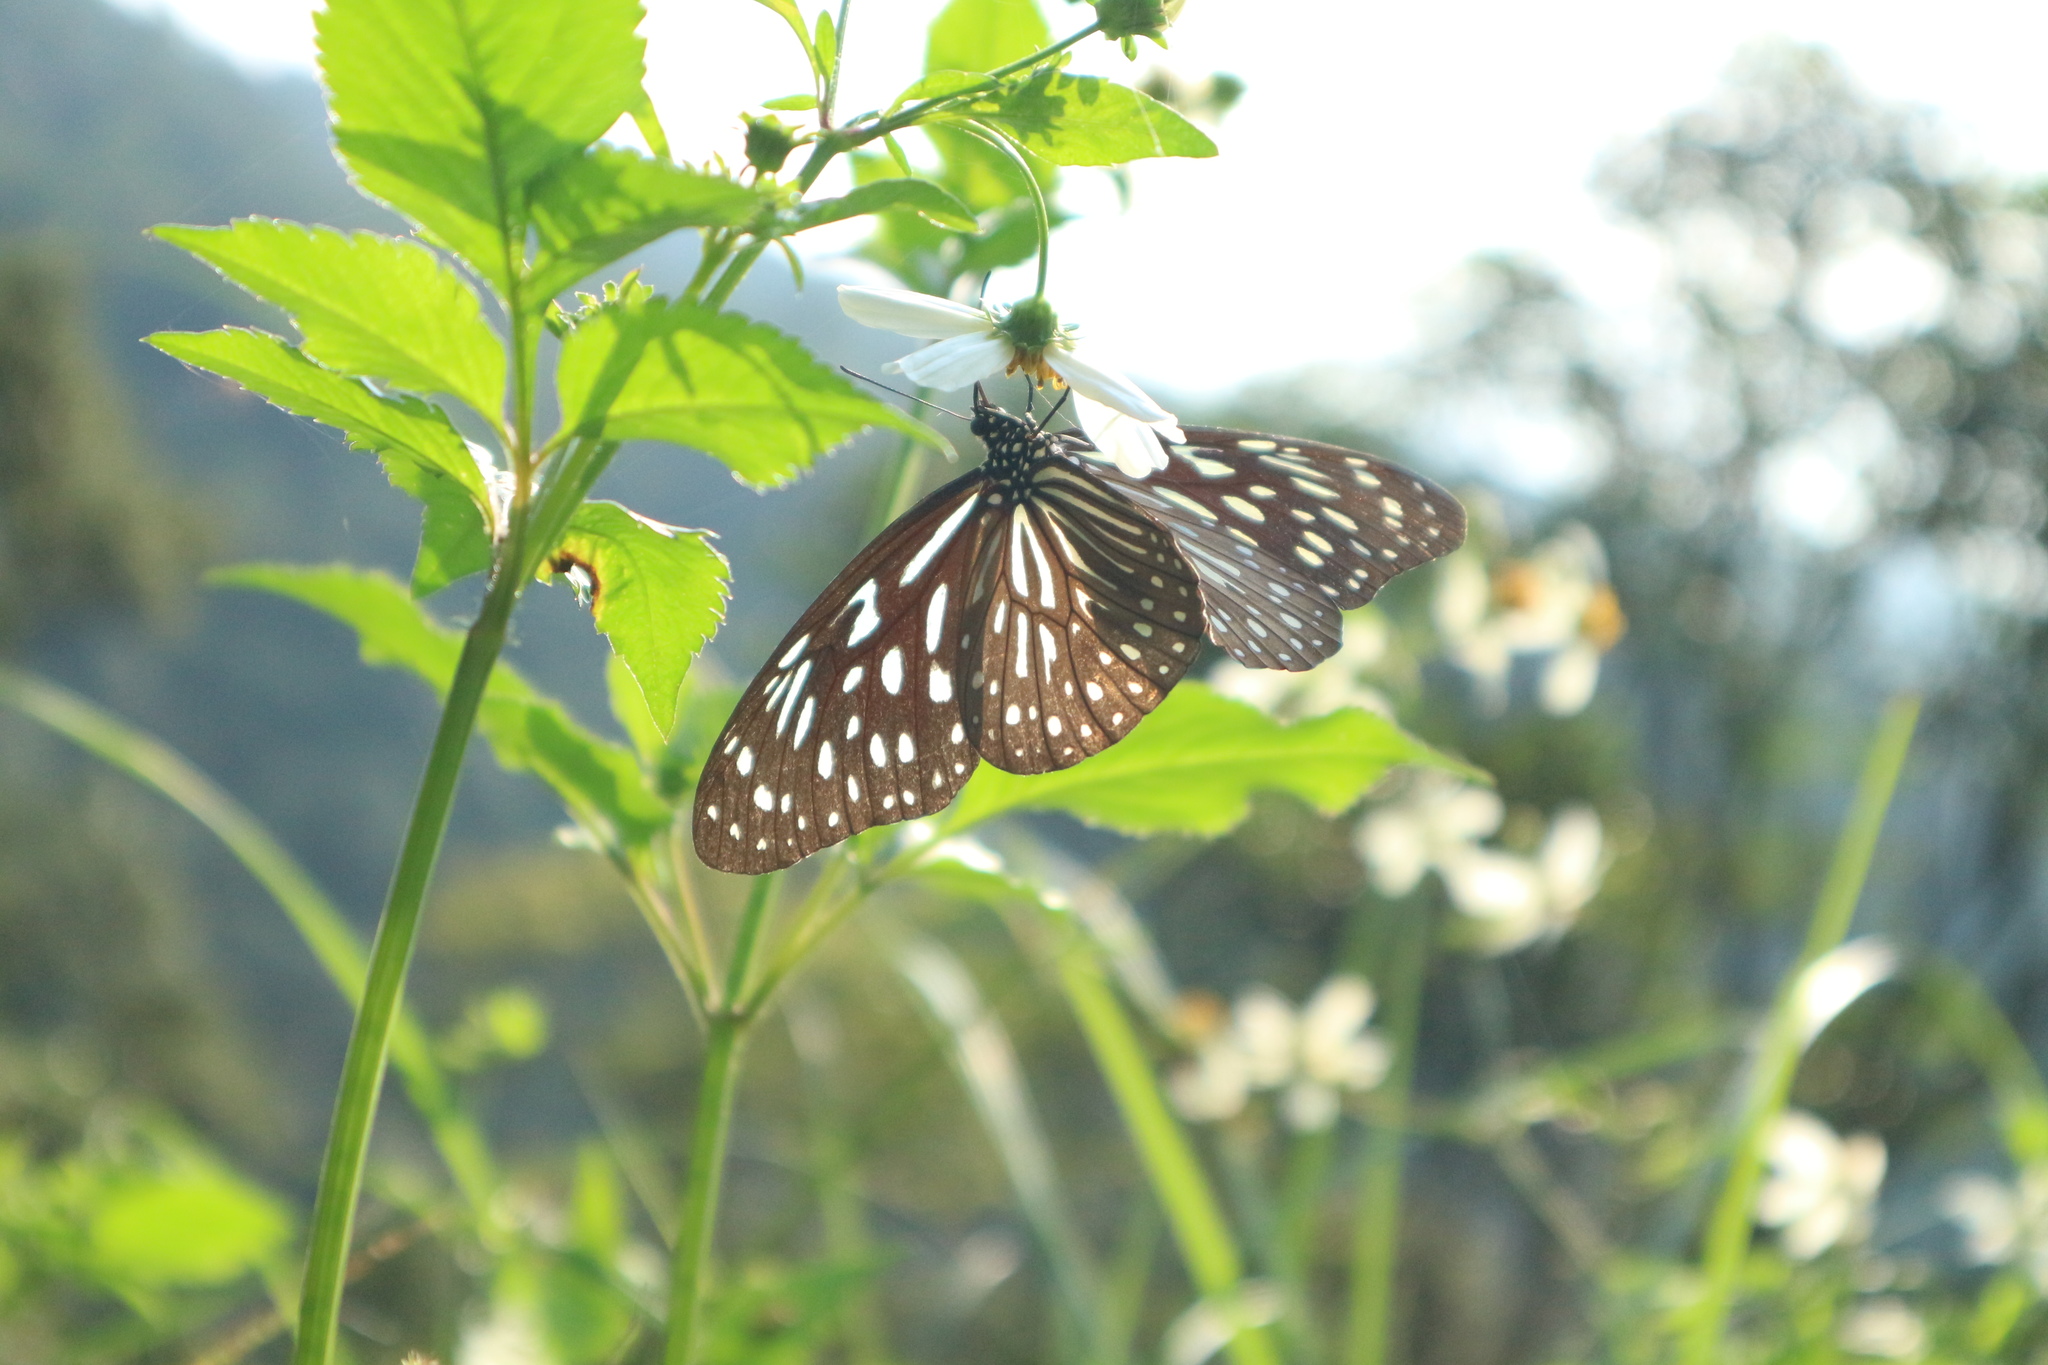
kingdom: Animalia
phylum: Arthropoda
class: Insecta
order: Lepidoptera
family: Nymphalidae
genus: Tirumala
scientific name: Tirumala septentrionis
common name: Dark blue tiger butterfly
